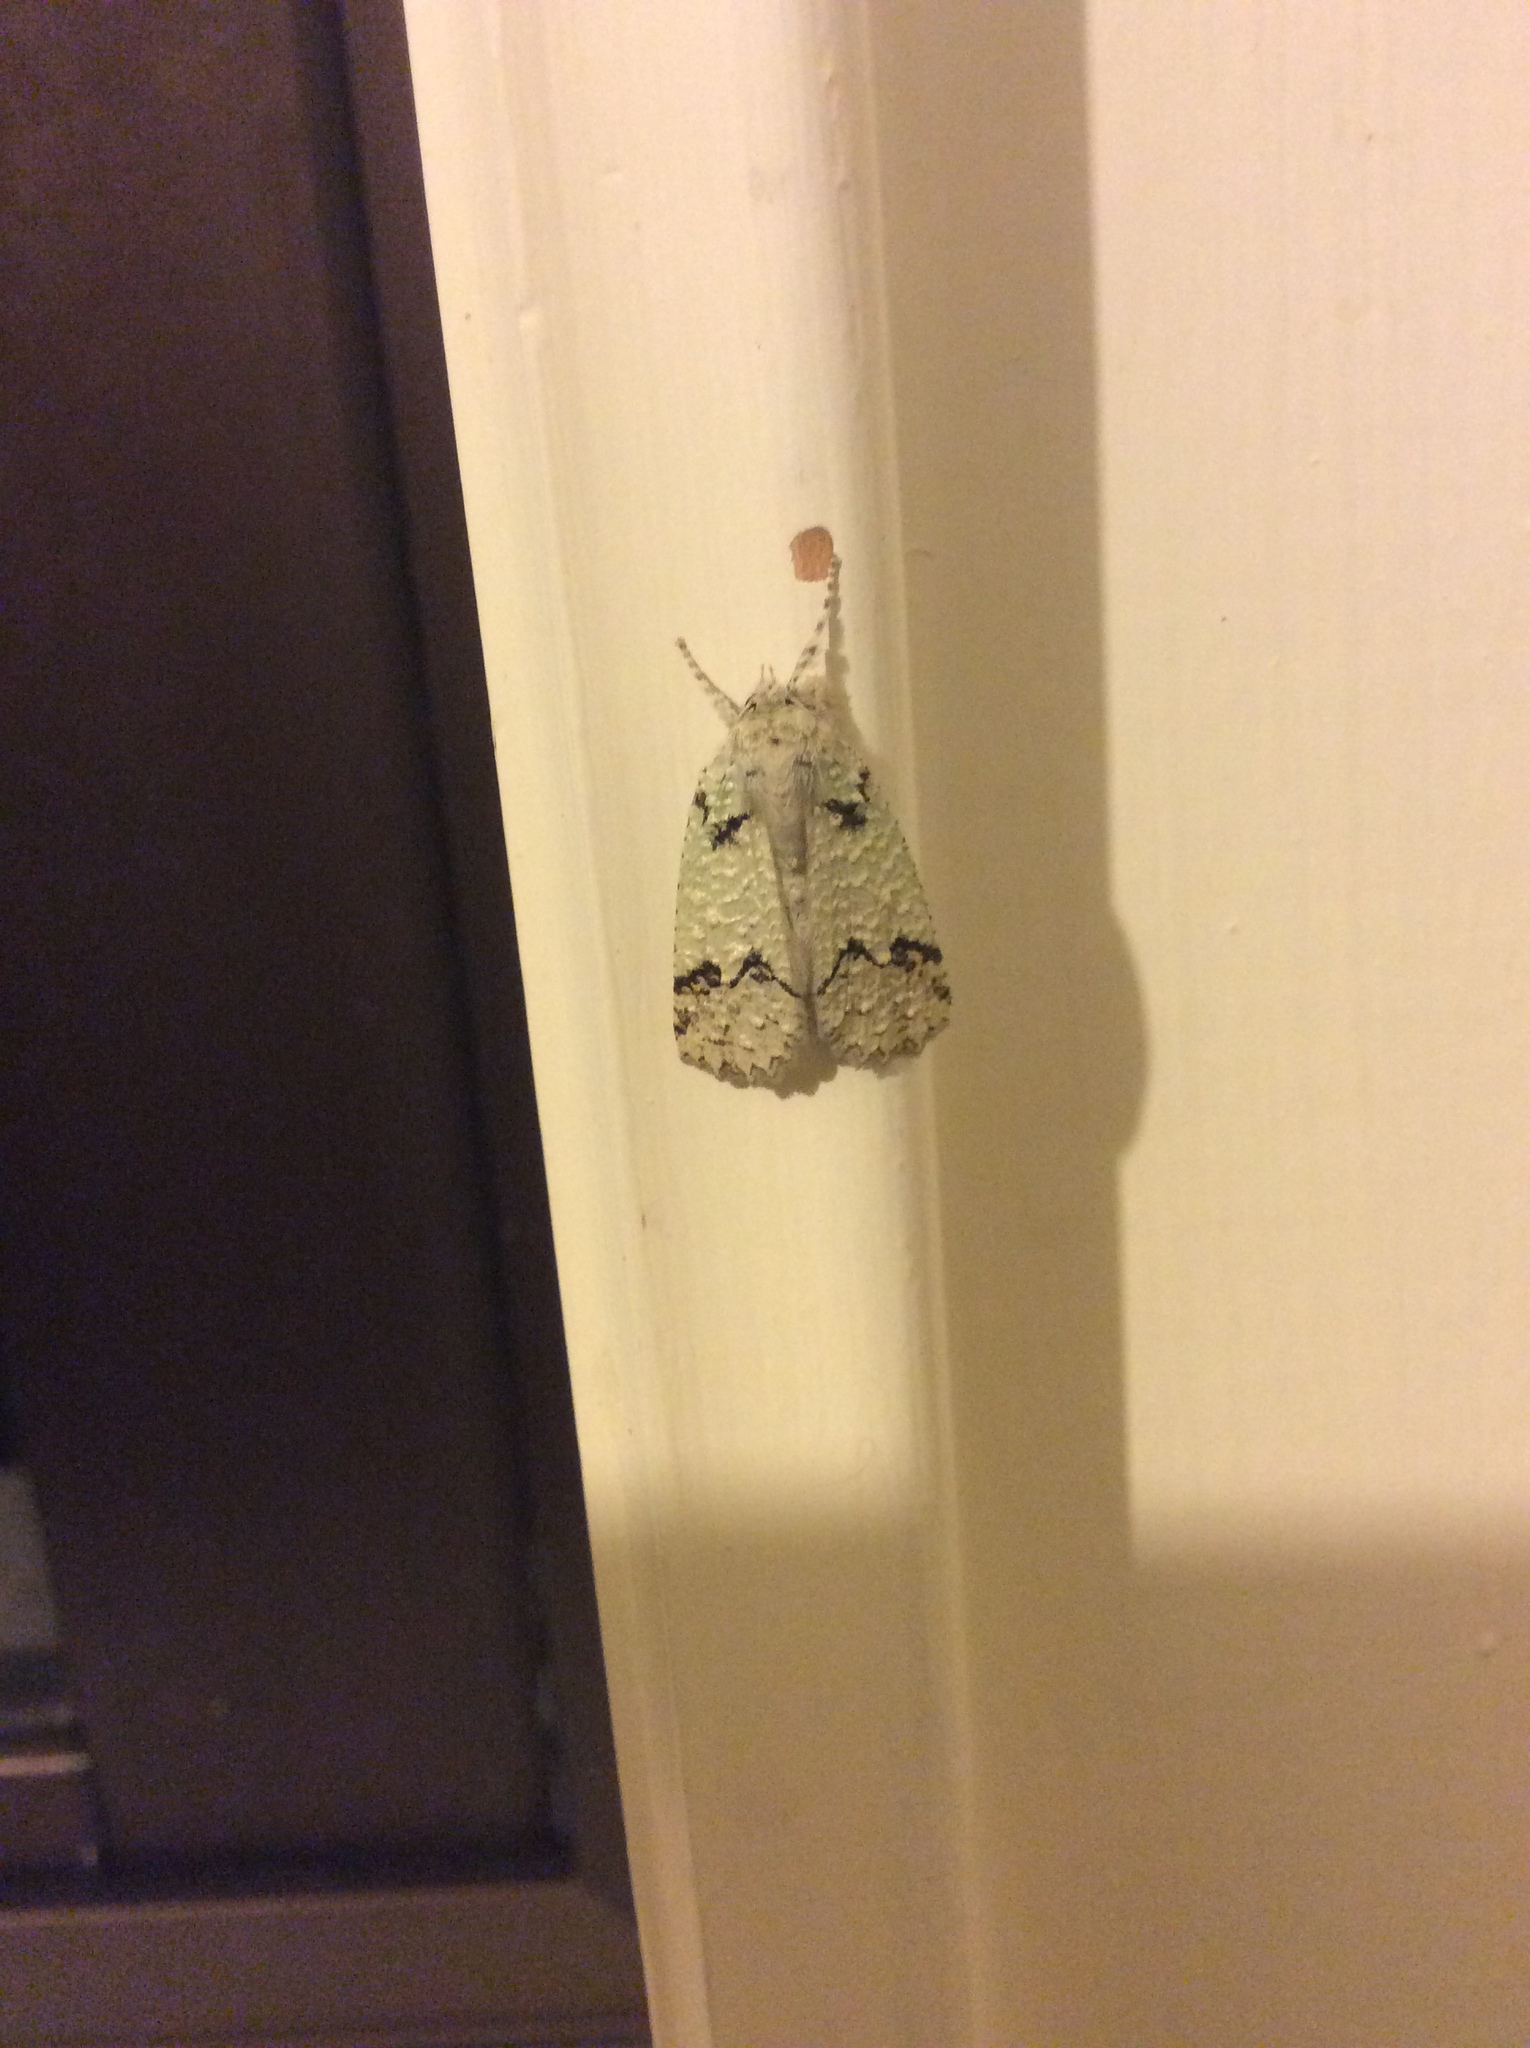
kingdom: Animalia
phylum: Arthropoda
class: Insecta
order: Lepidoptera
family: Geometridae
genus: Declana
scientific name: Declana floccosa
